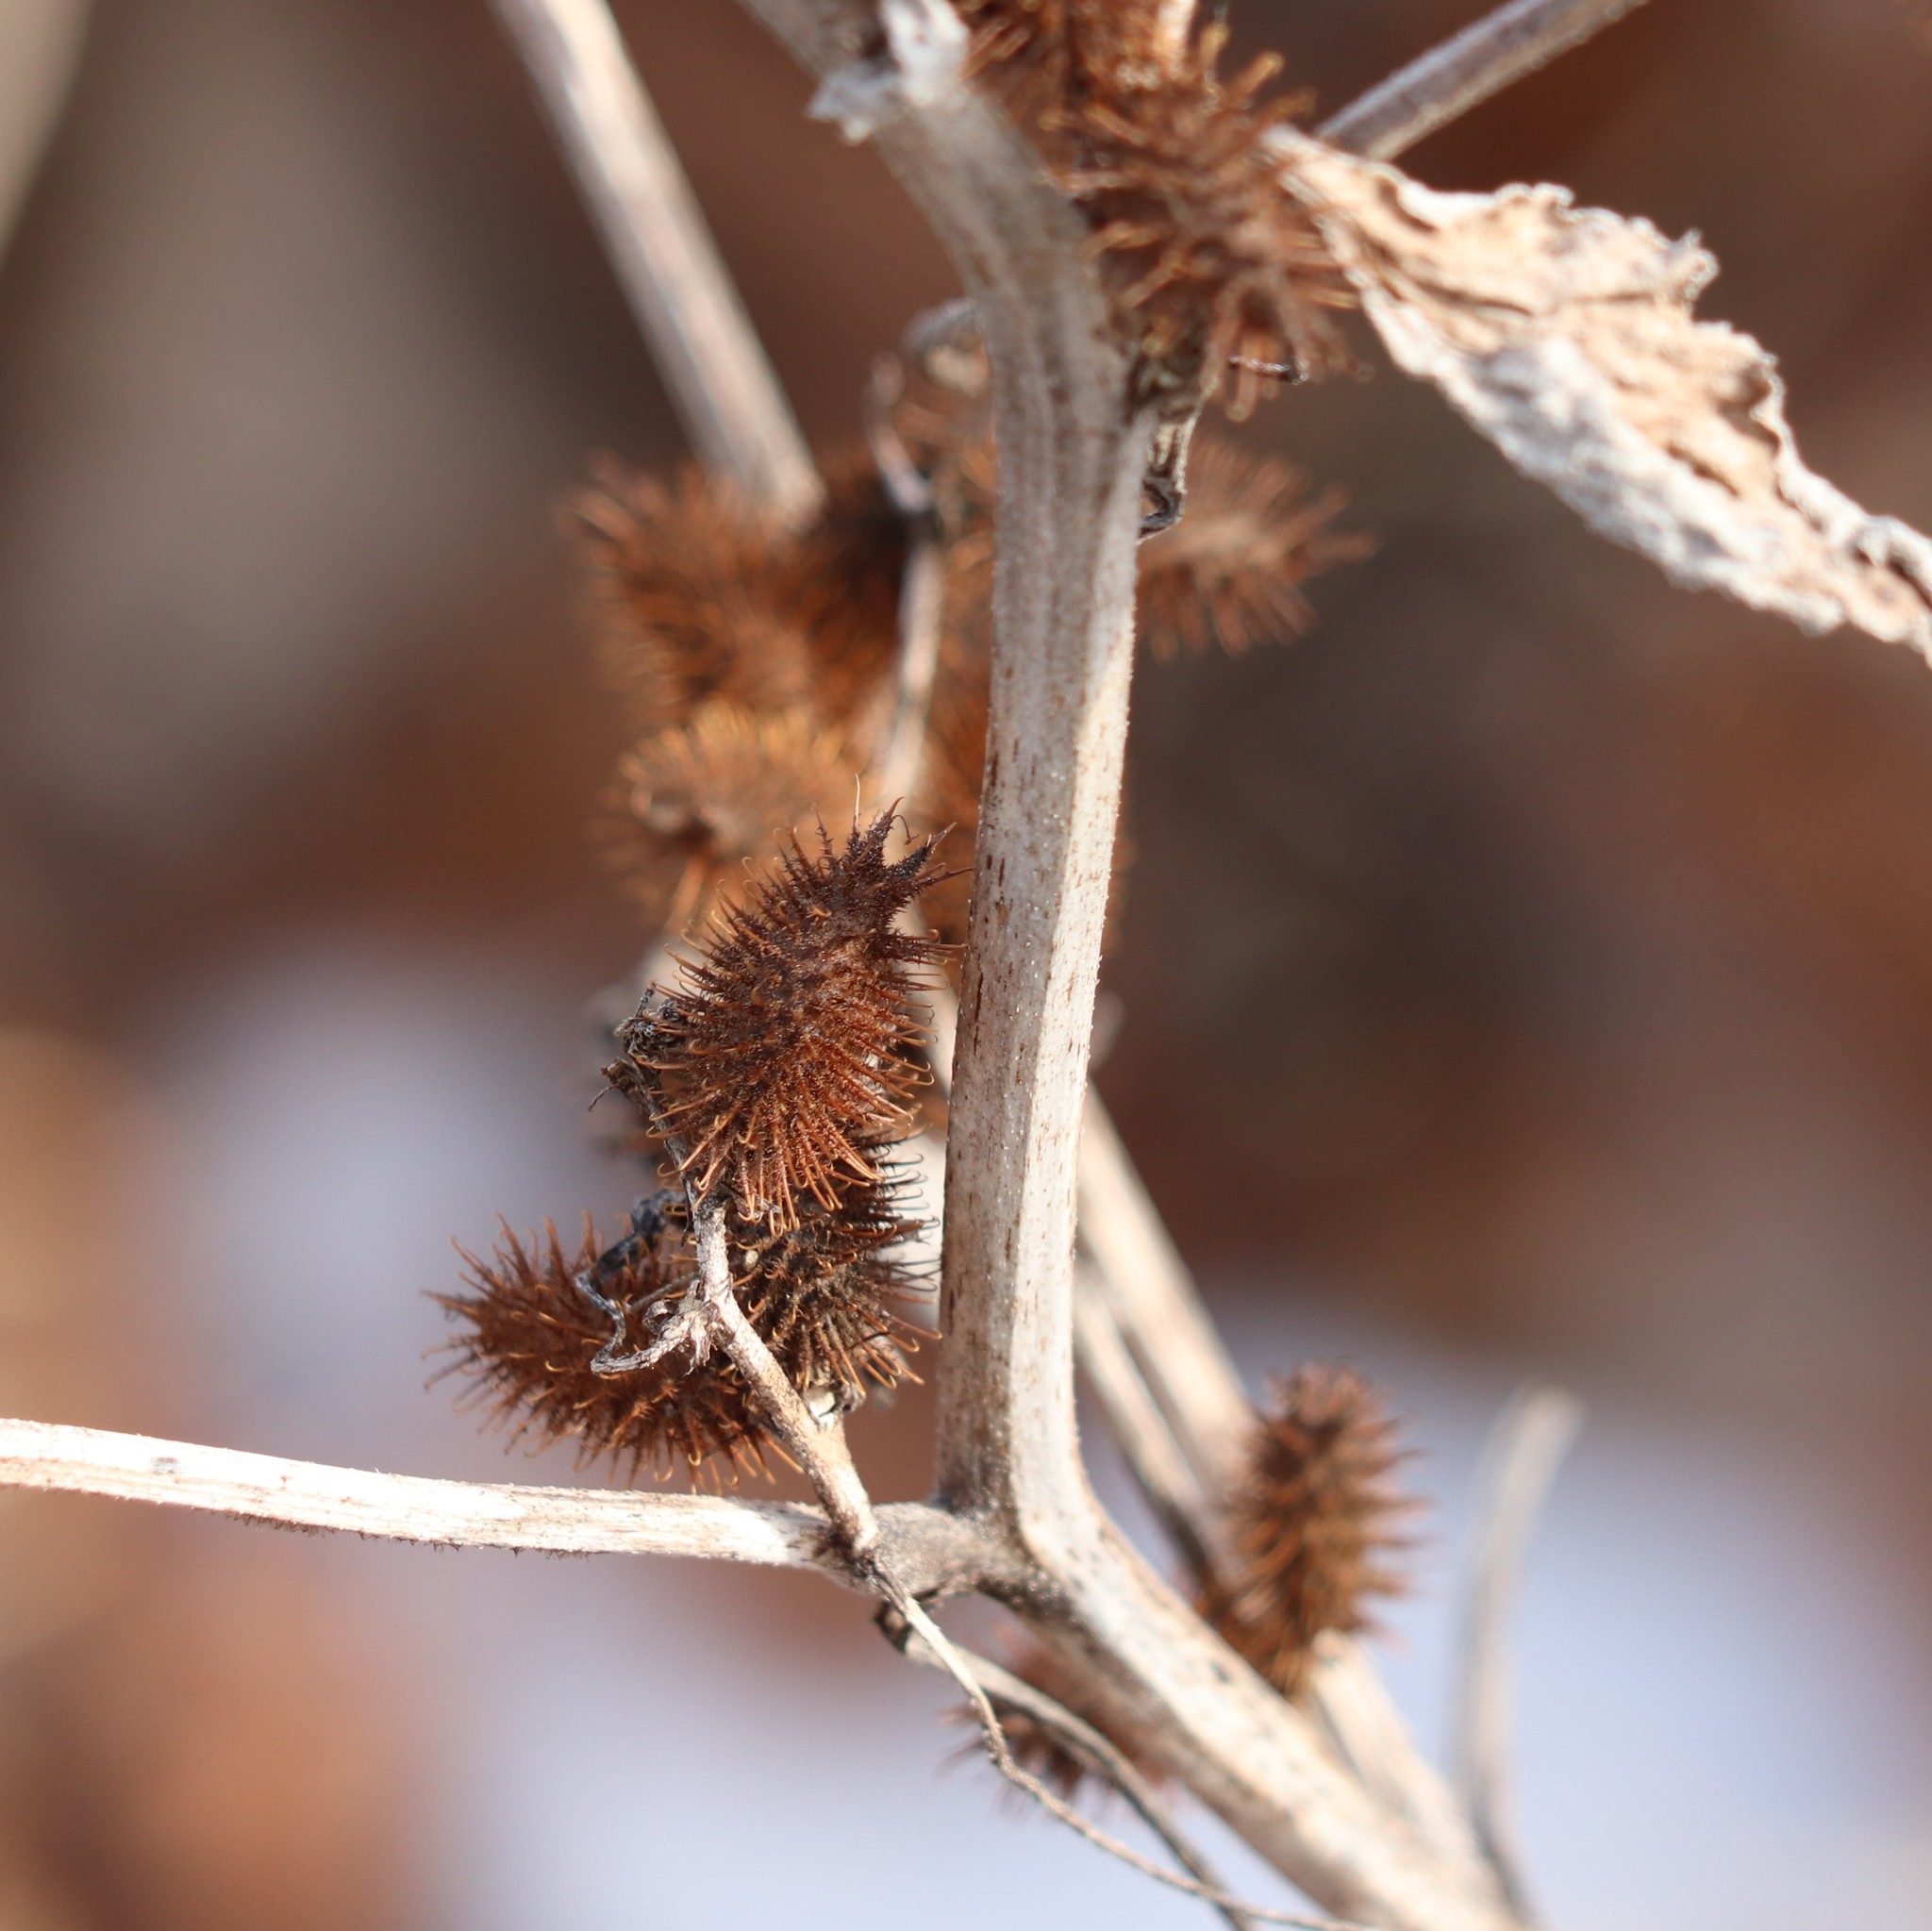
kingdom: Plantae
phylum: Tracheophyta
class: Magnoliopsida
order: Asterales
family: Asteraceae
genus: Xanthium
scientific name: Xanthium strumarium
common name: Rough cocklebur
